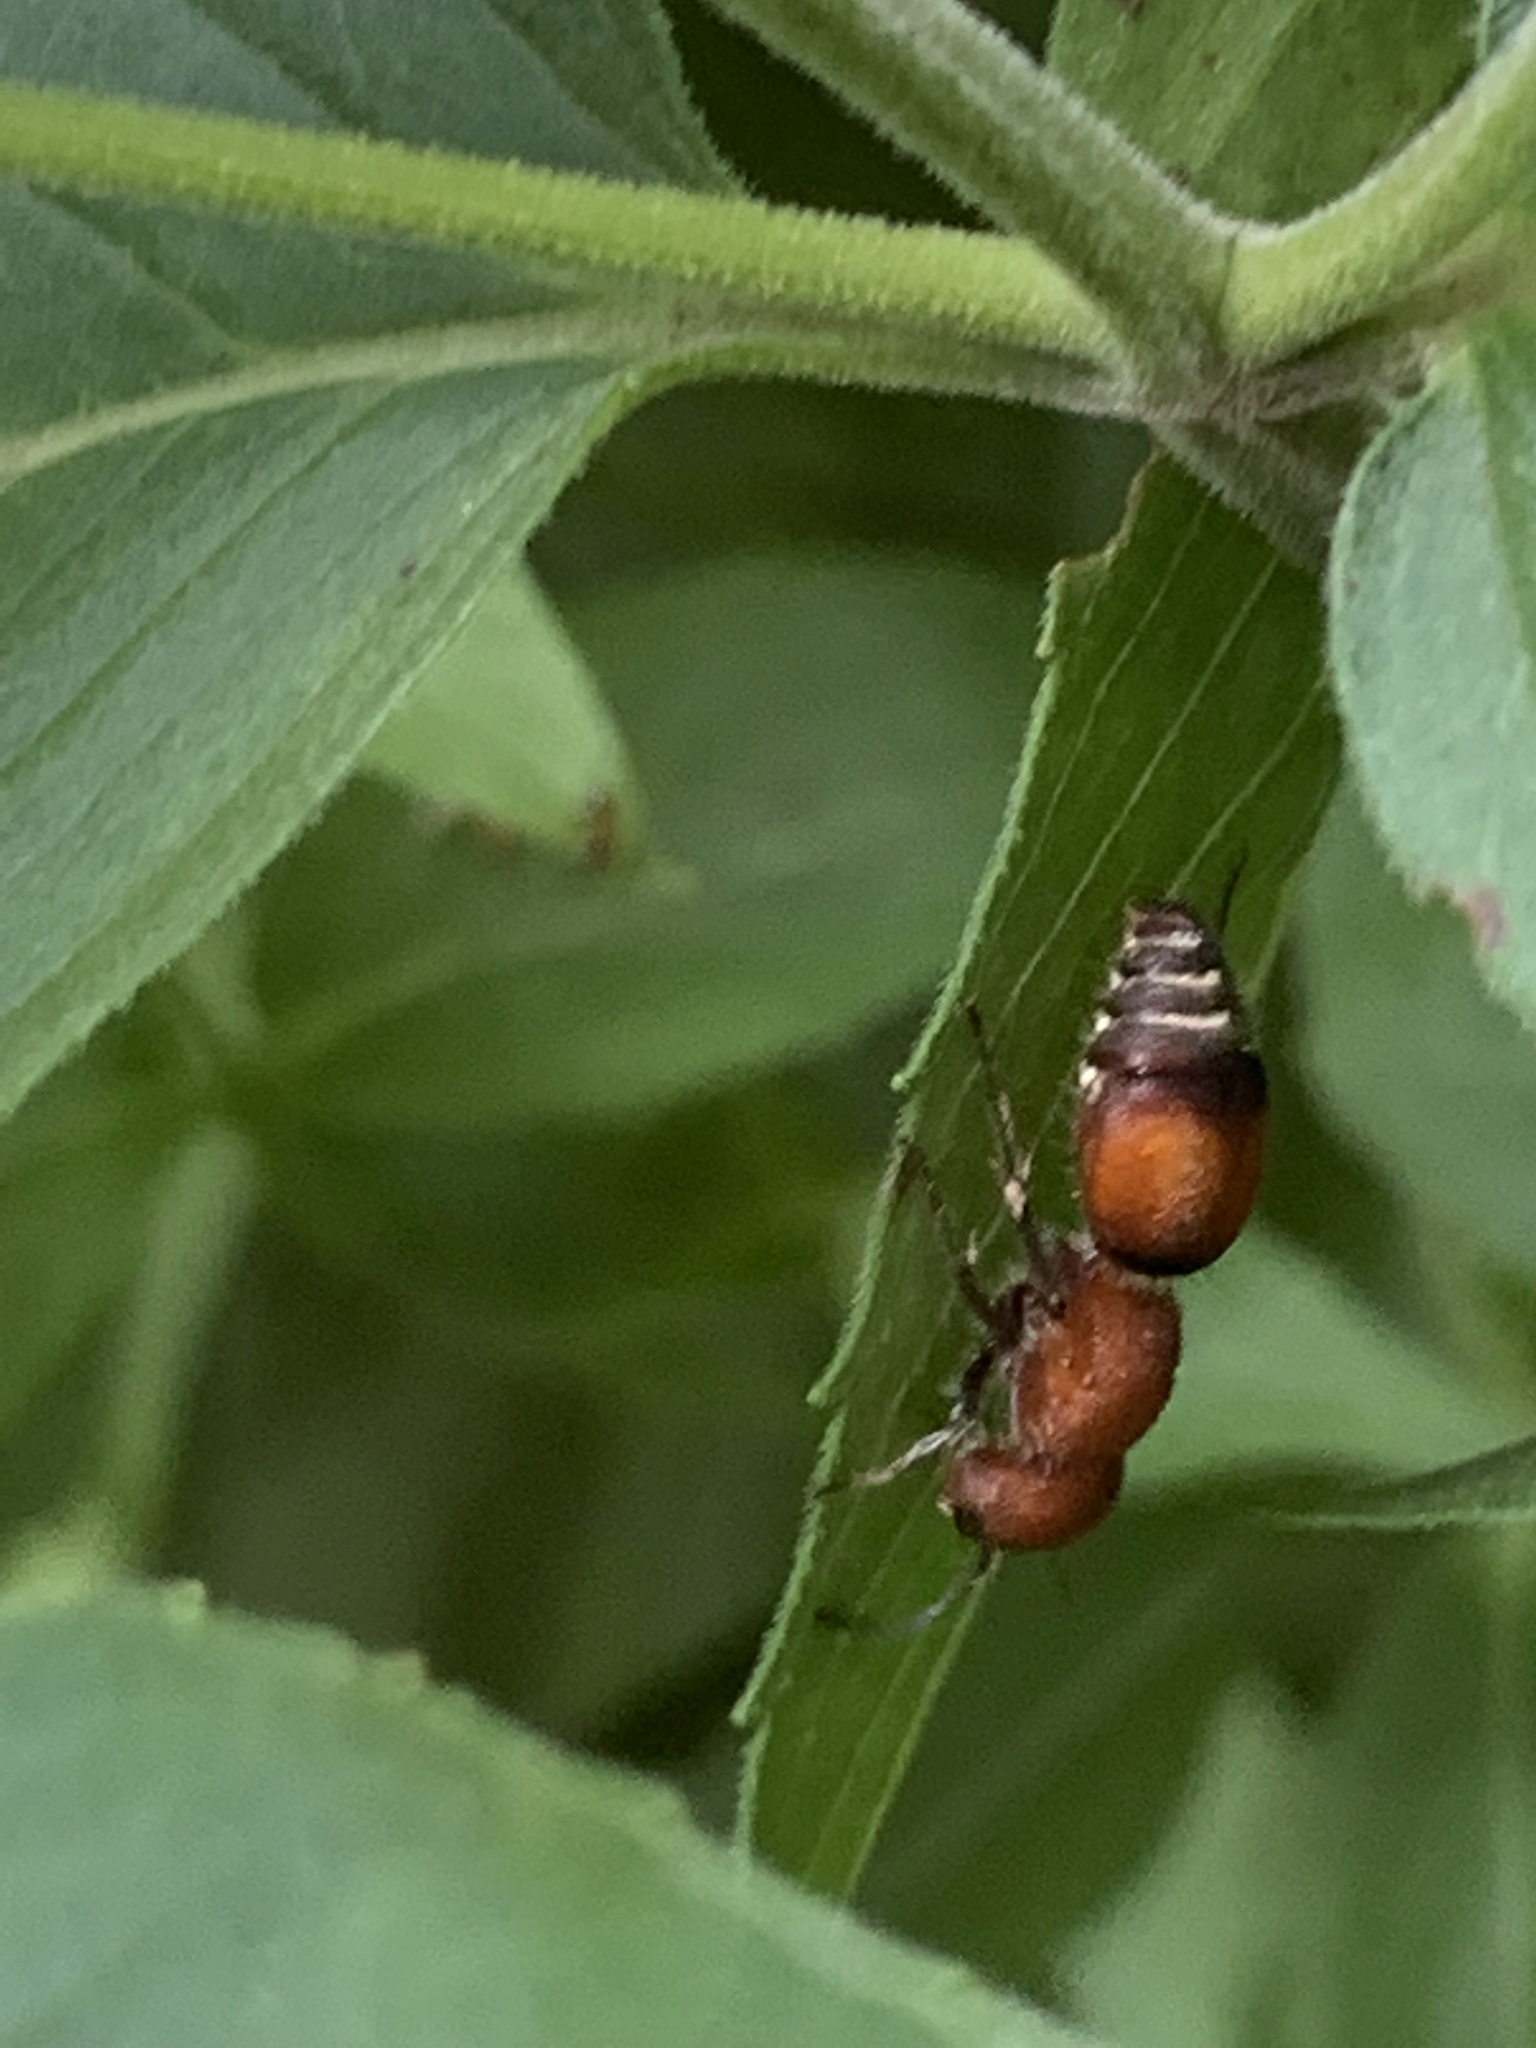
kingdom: Animalia
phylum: Arthropoda
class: Insecta
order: Hymenoptera
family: Mutillidae
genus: Pseudomethoca
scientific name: Pseudomethoca
